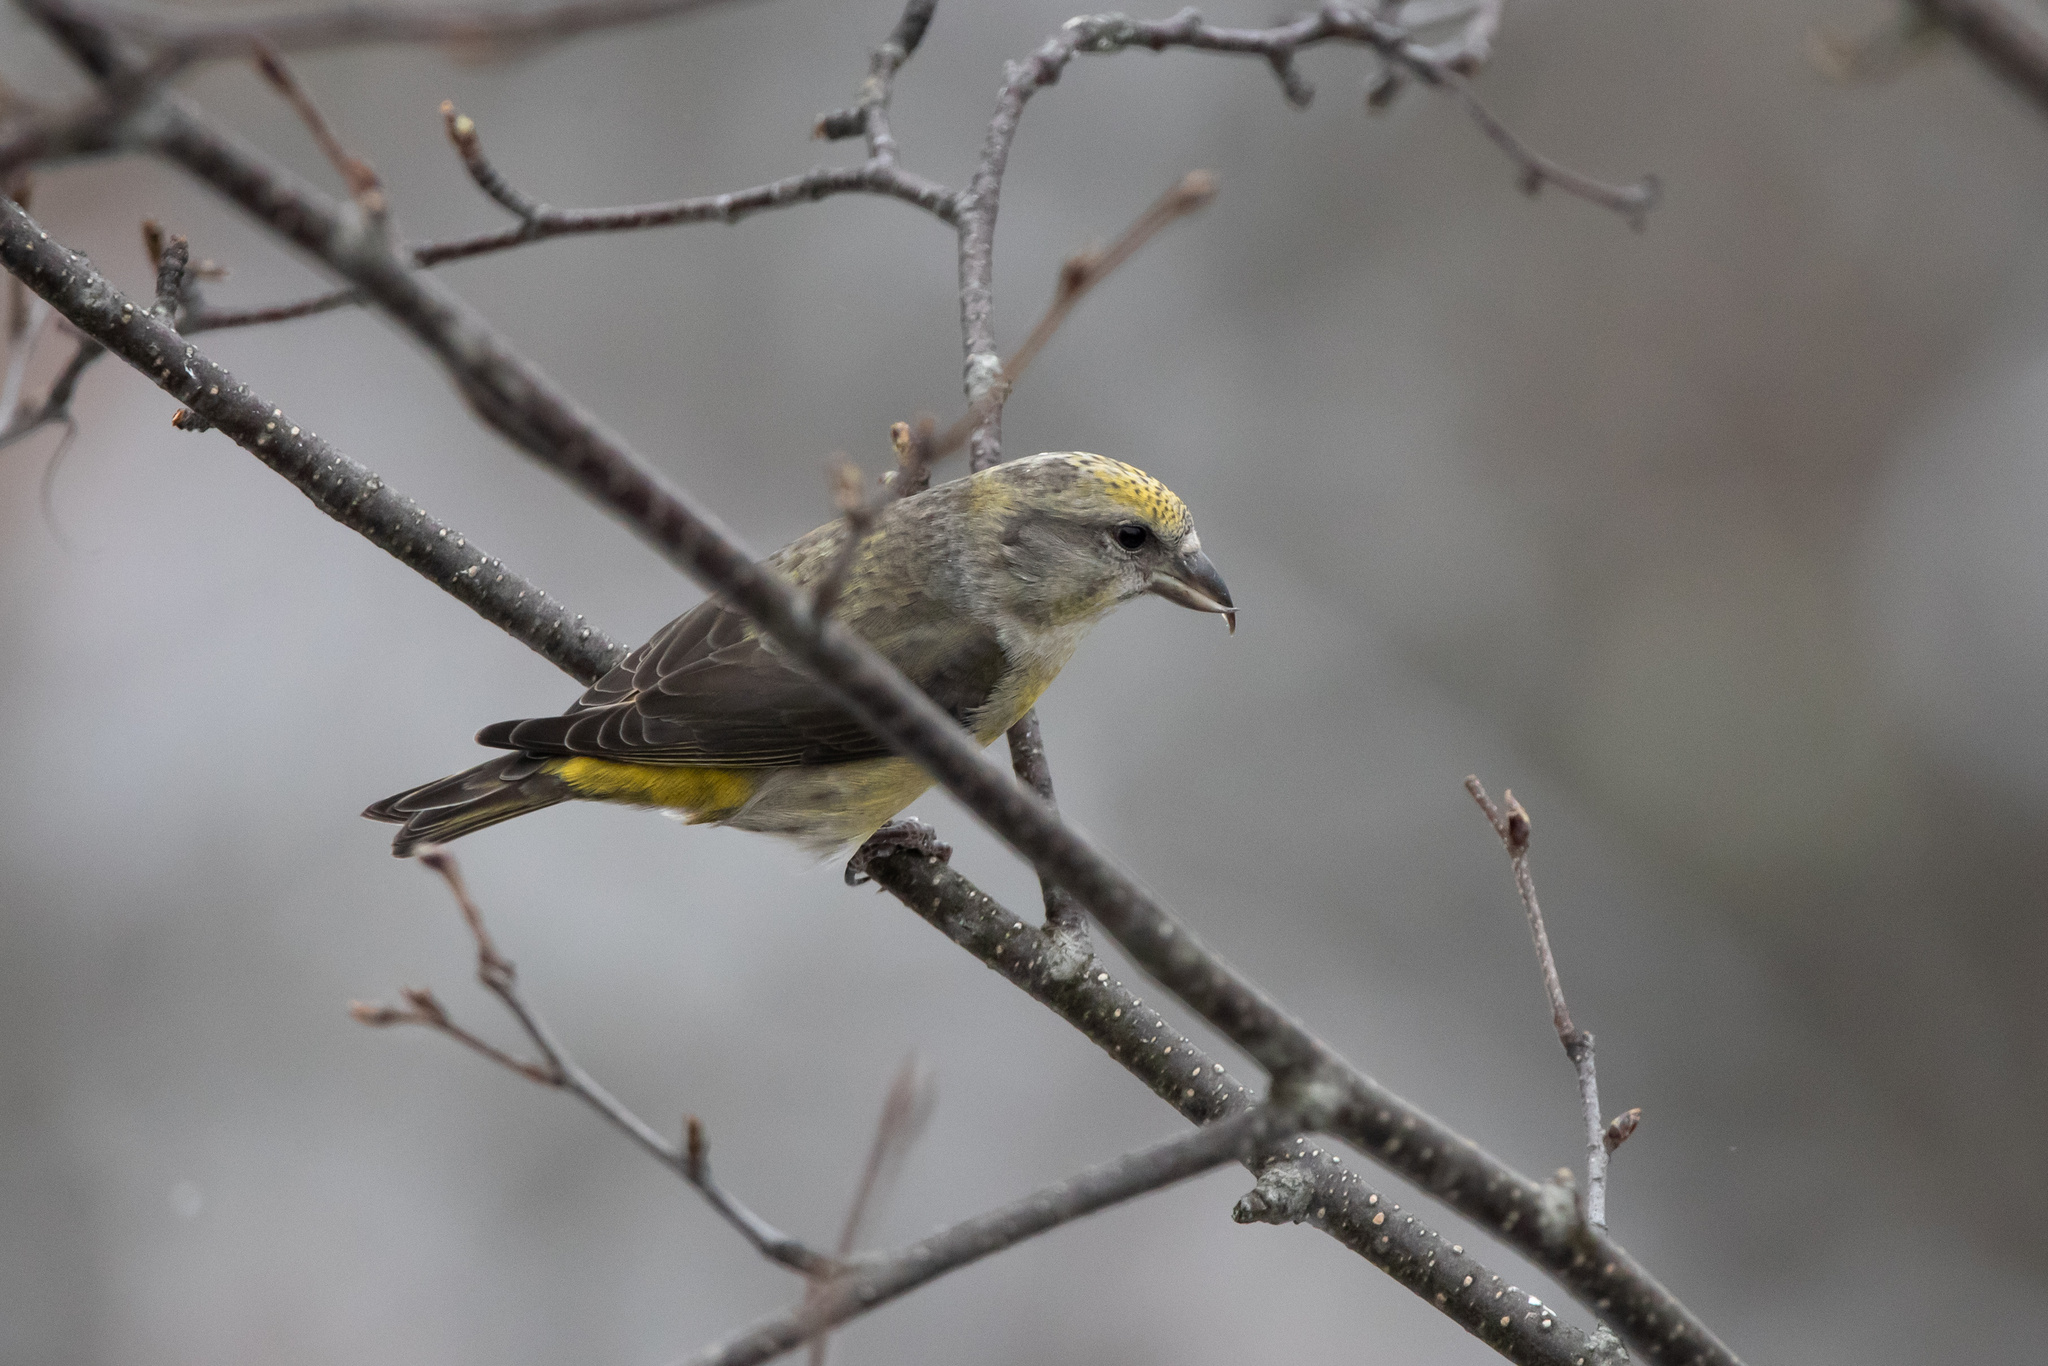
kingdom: Animalia
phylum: Chordata
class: Aves
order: Passeriformes
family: Fringillidae
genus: Loxia
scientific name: Loxia curvirostra
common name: Red crossbill
